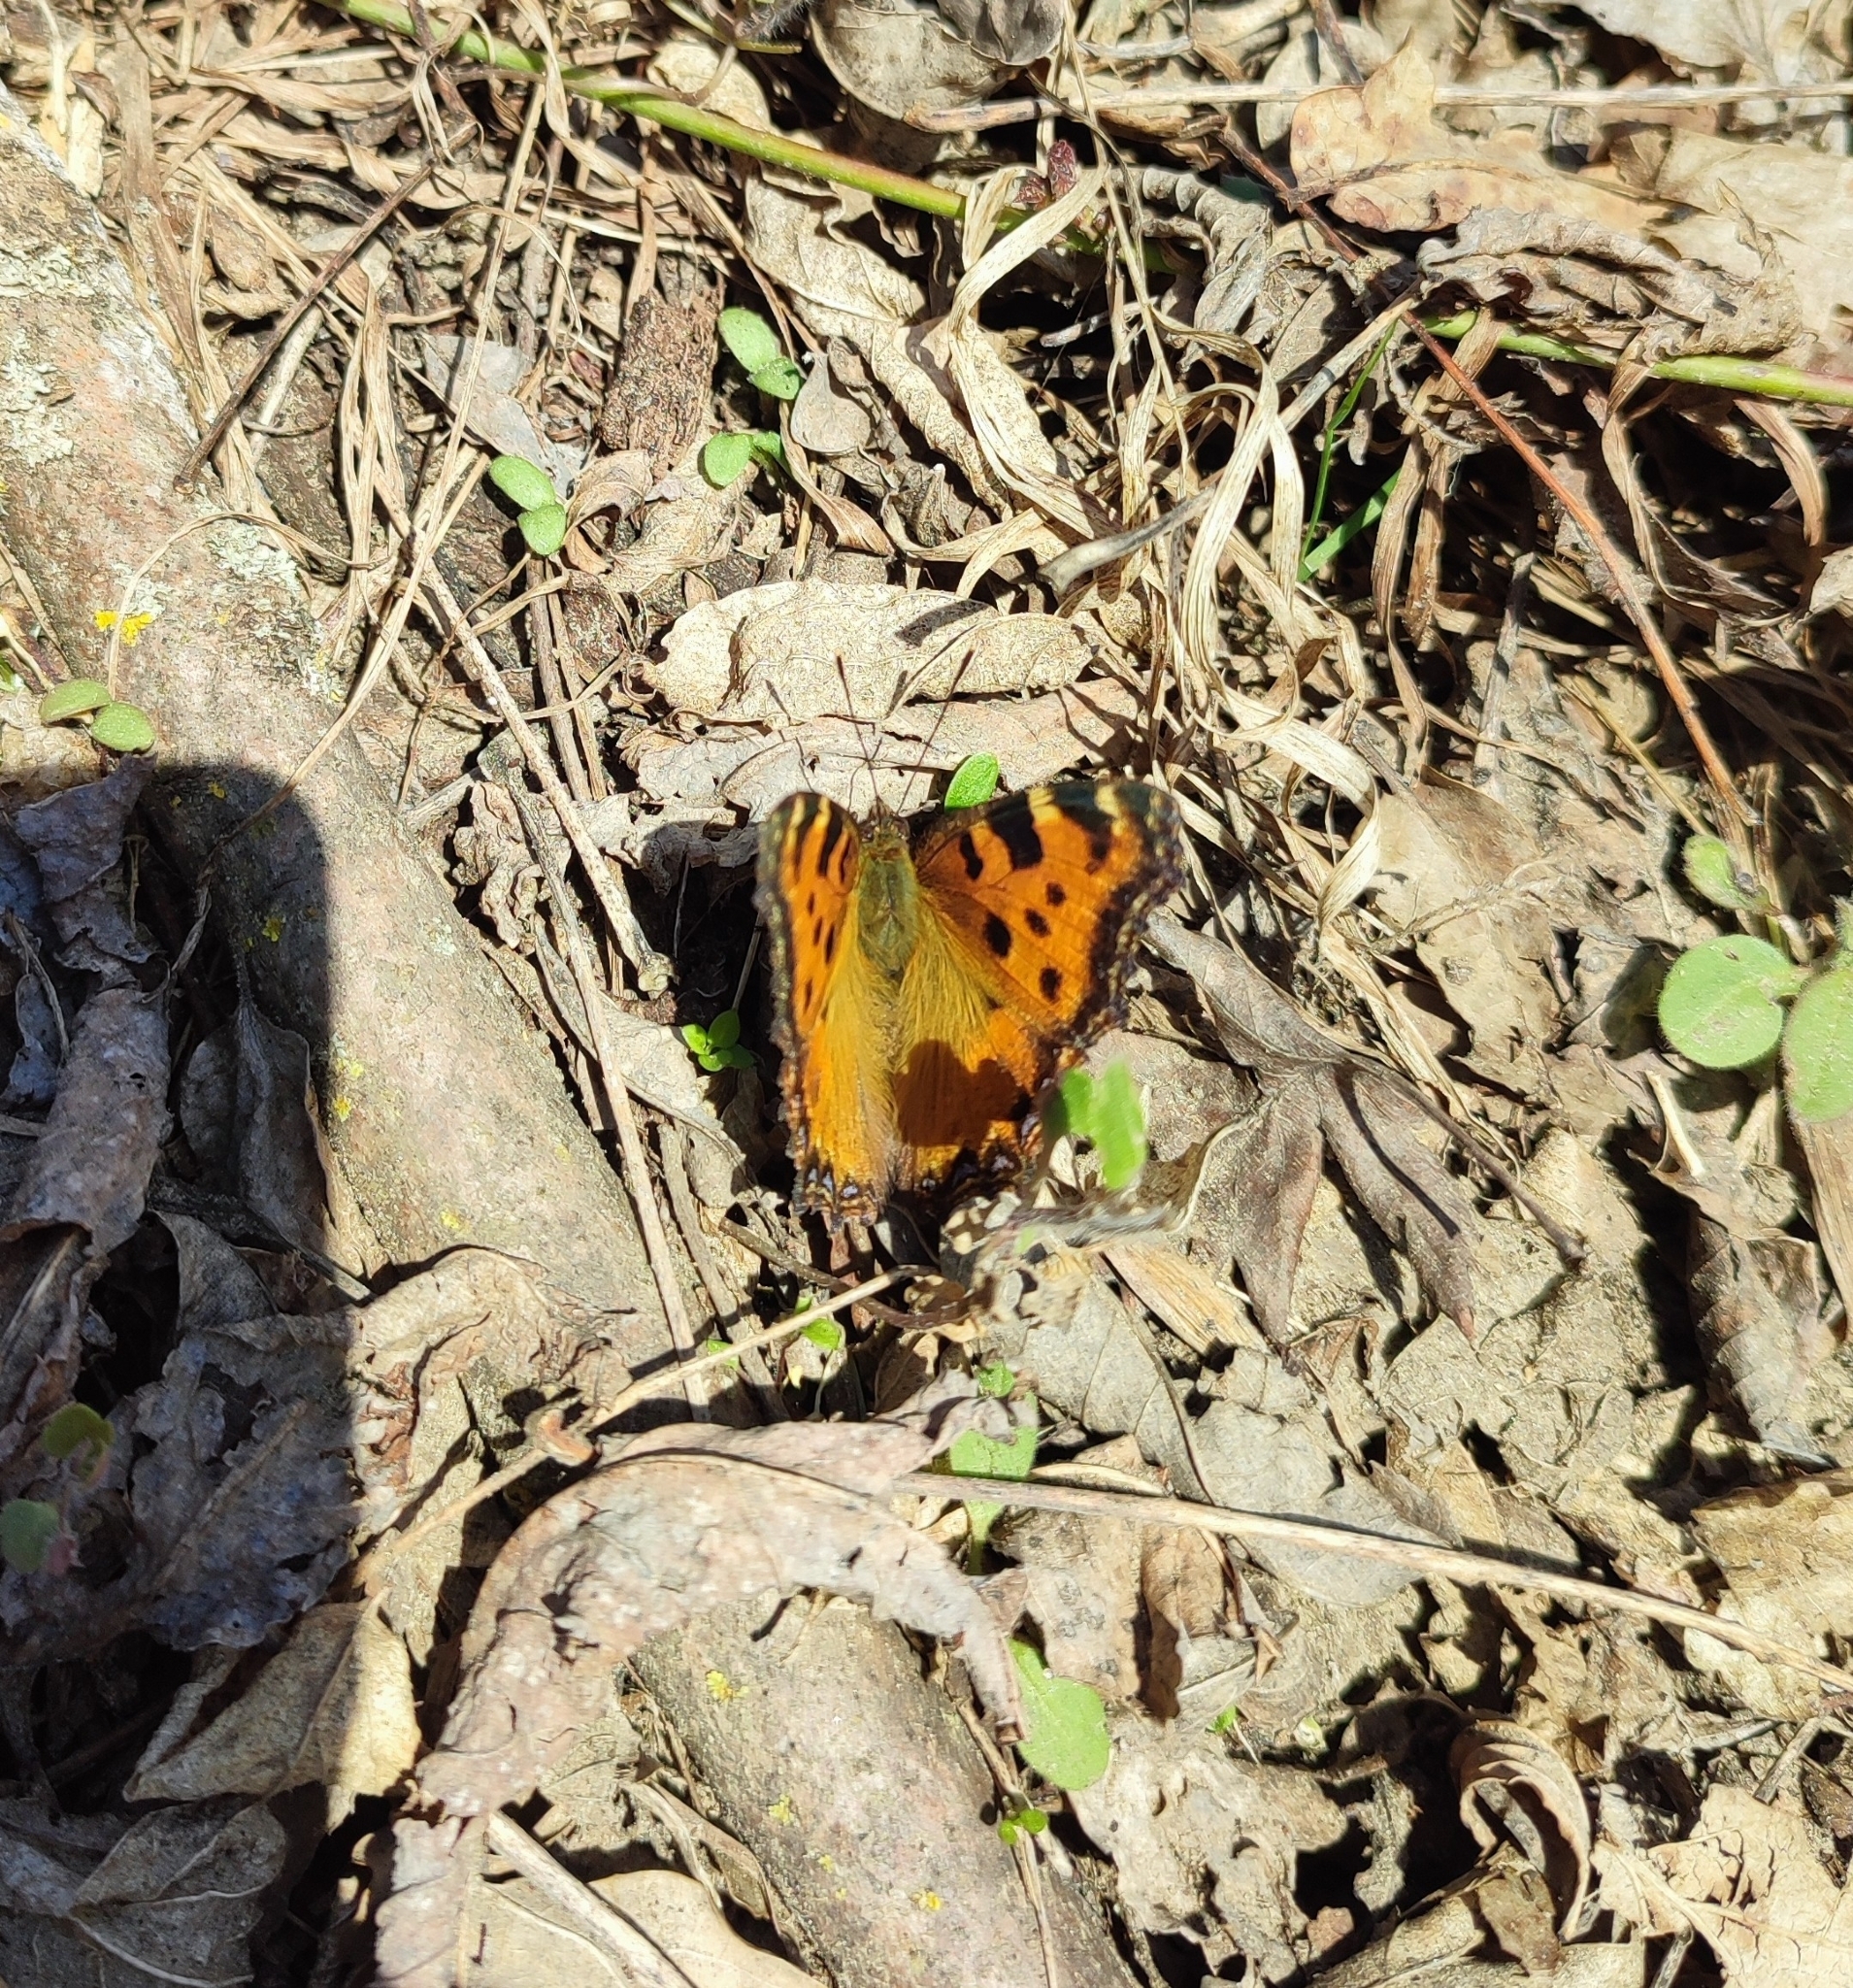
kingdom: Animalia
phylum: Arthropoda
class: Insecta
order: Lepidoptera
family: Nymphalidae
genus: Nymphalis
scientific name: Nymphalis polychloros
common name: Large tortoiseshell
